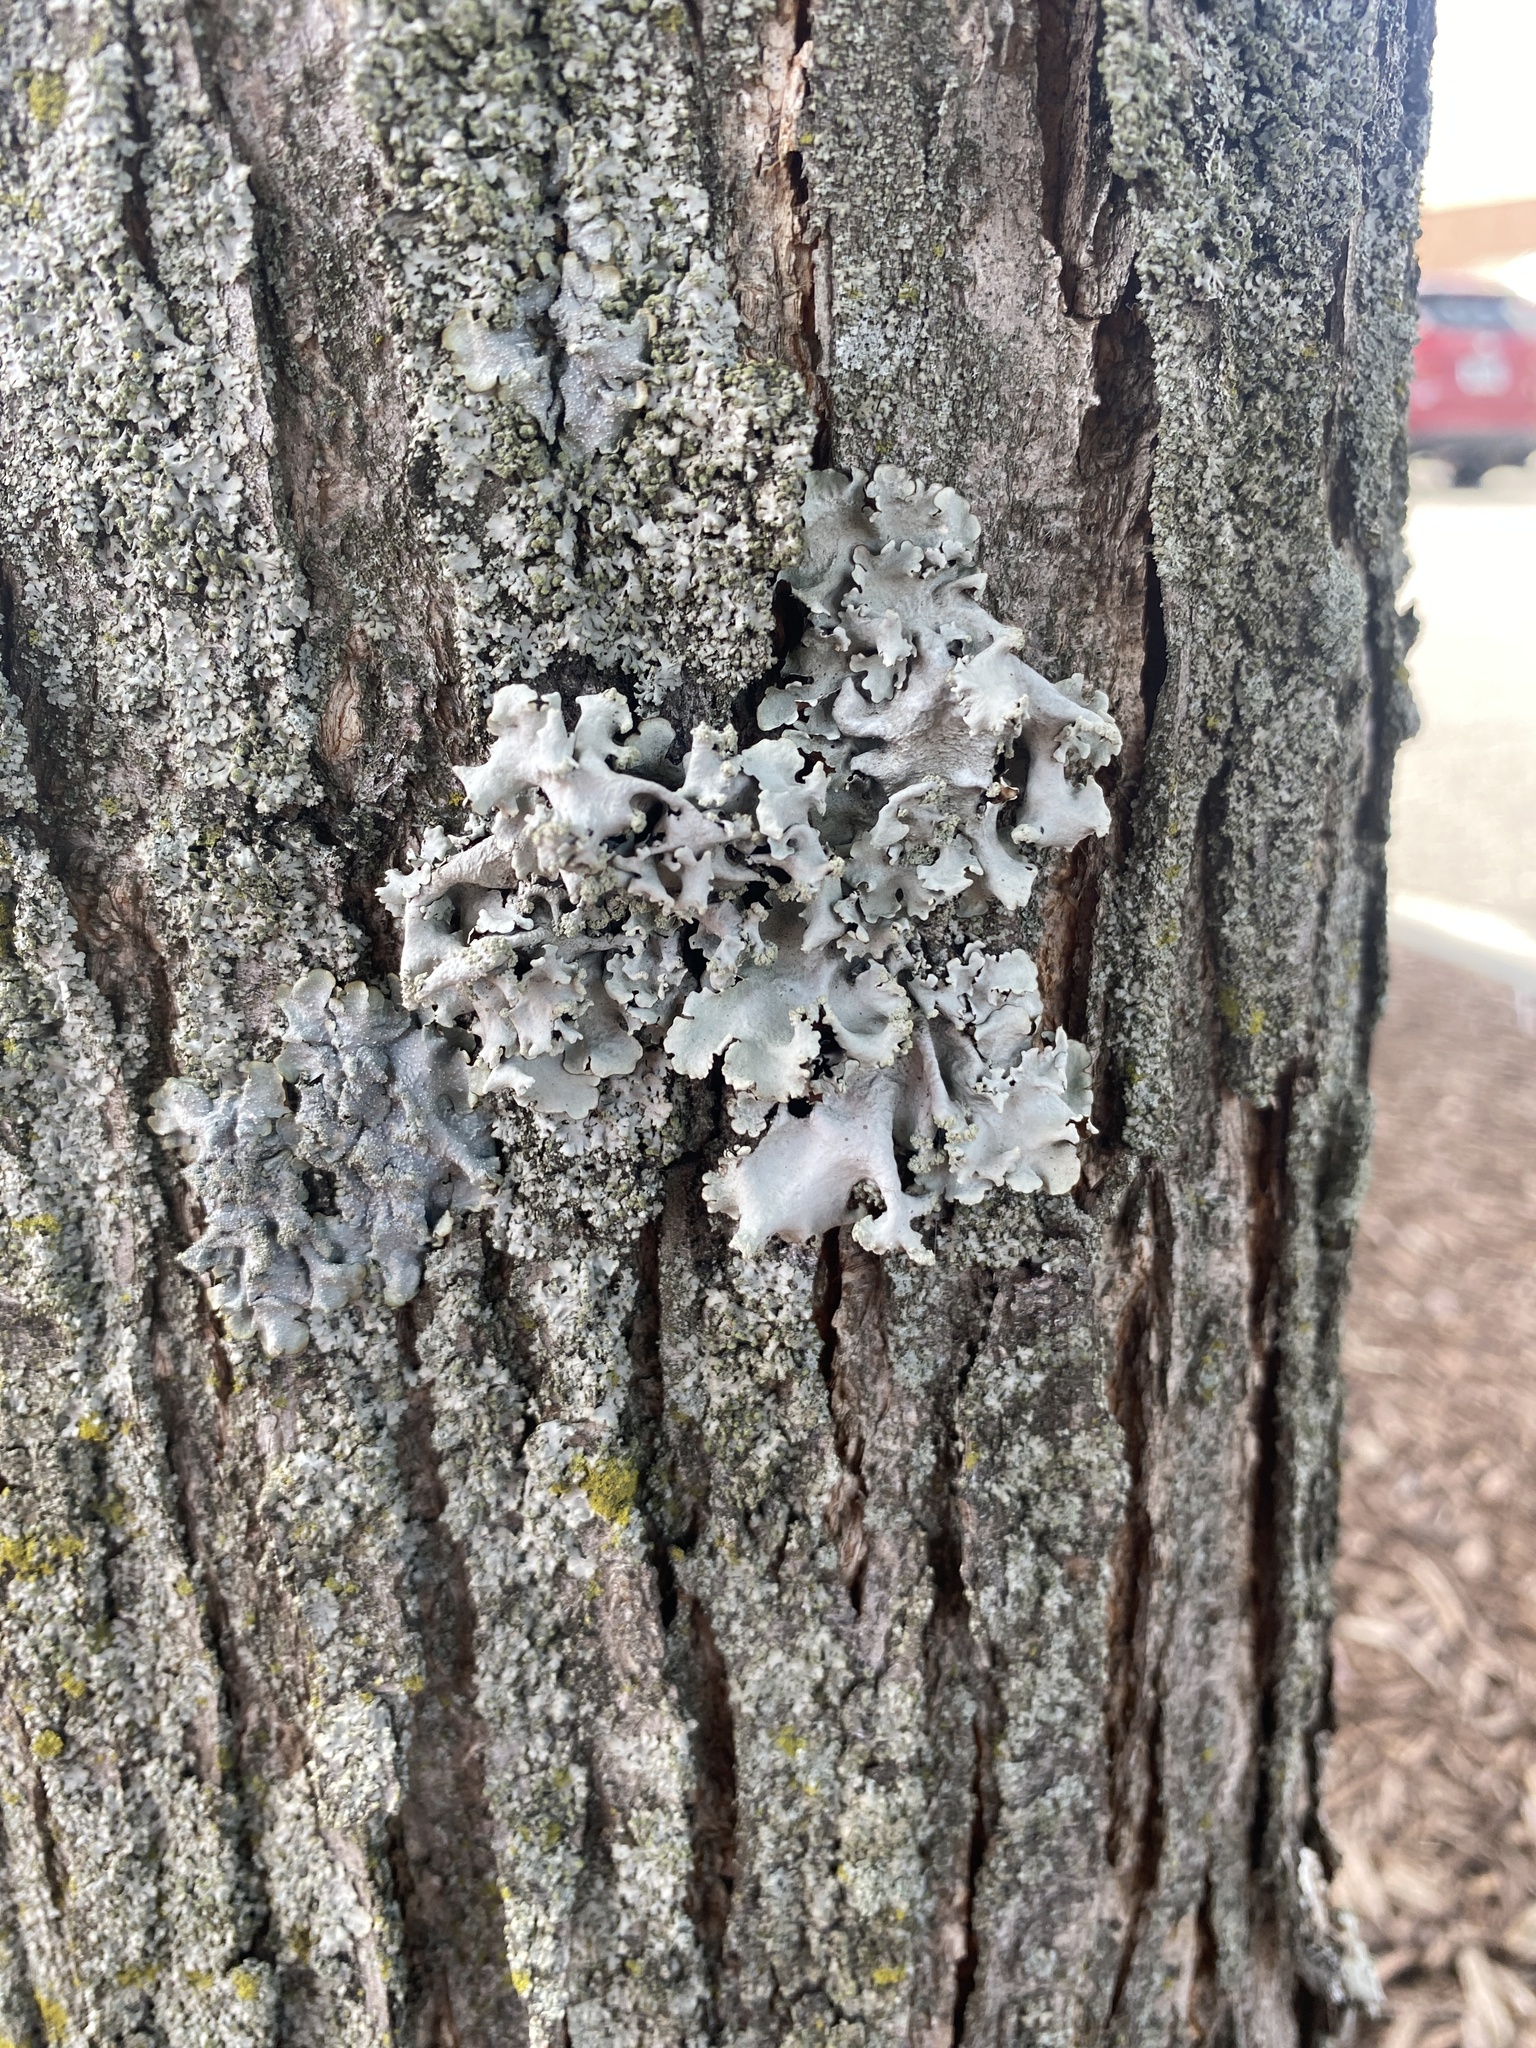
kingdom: Fungi
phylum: Ascomycota
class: Lecanoromycetes
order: Lecanorales
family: Parmeliaceae
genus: Parmotrema
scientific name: Parmotrema hypotropum
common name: Powdered ruffle lichen
